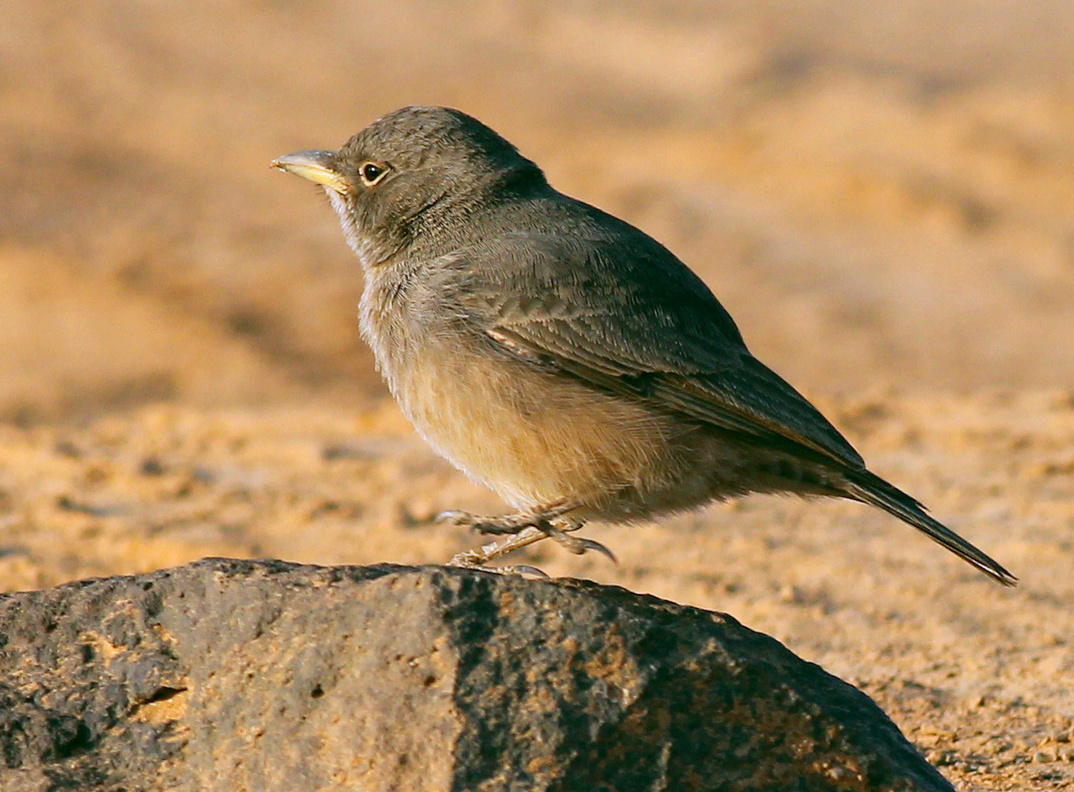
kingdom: Animalia
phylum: Chordata
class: Aves
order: Passeriformes
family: Alaudidae
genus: Ammomanes
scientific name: Ammomanes deserti
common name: Desert lark
